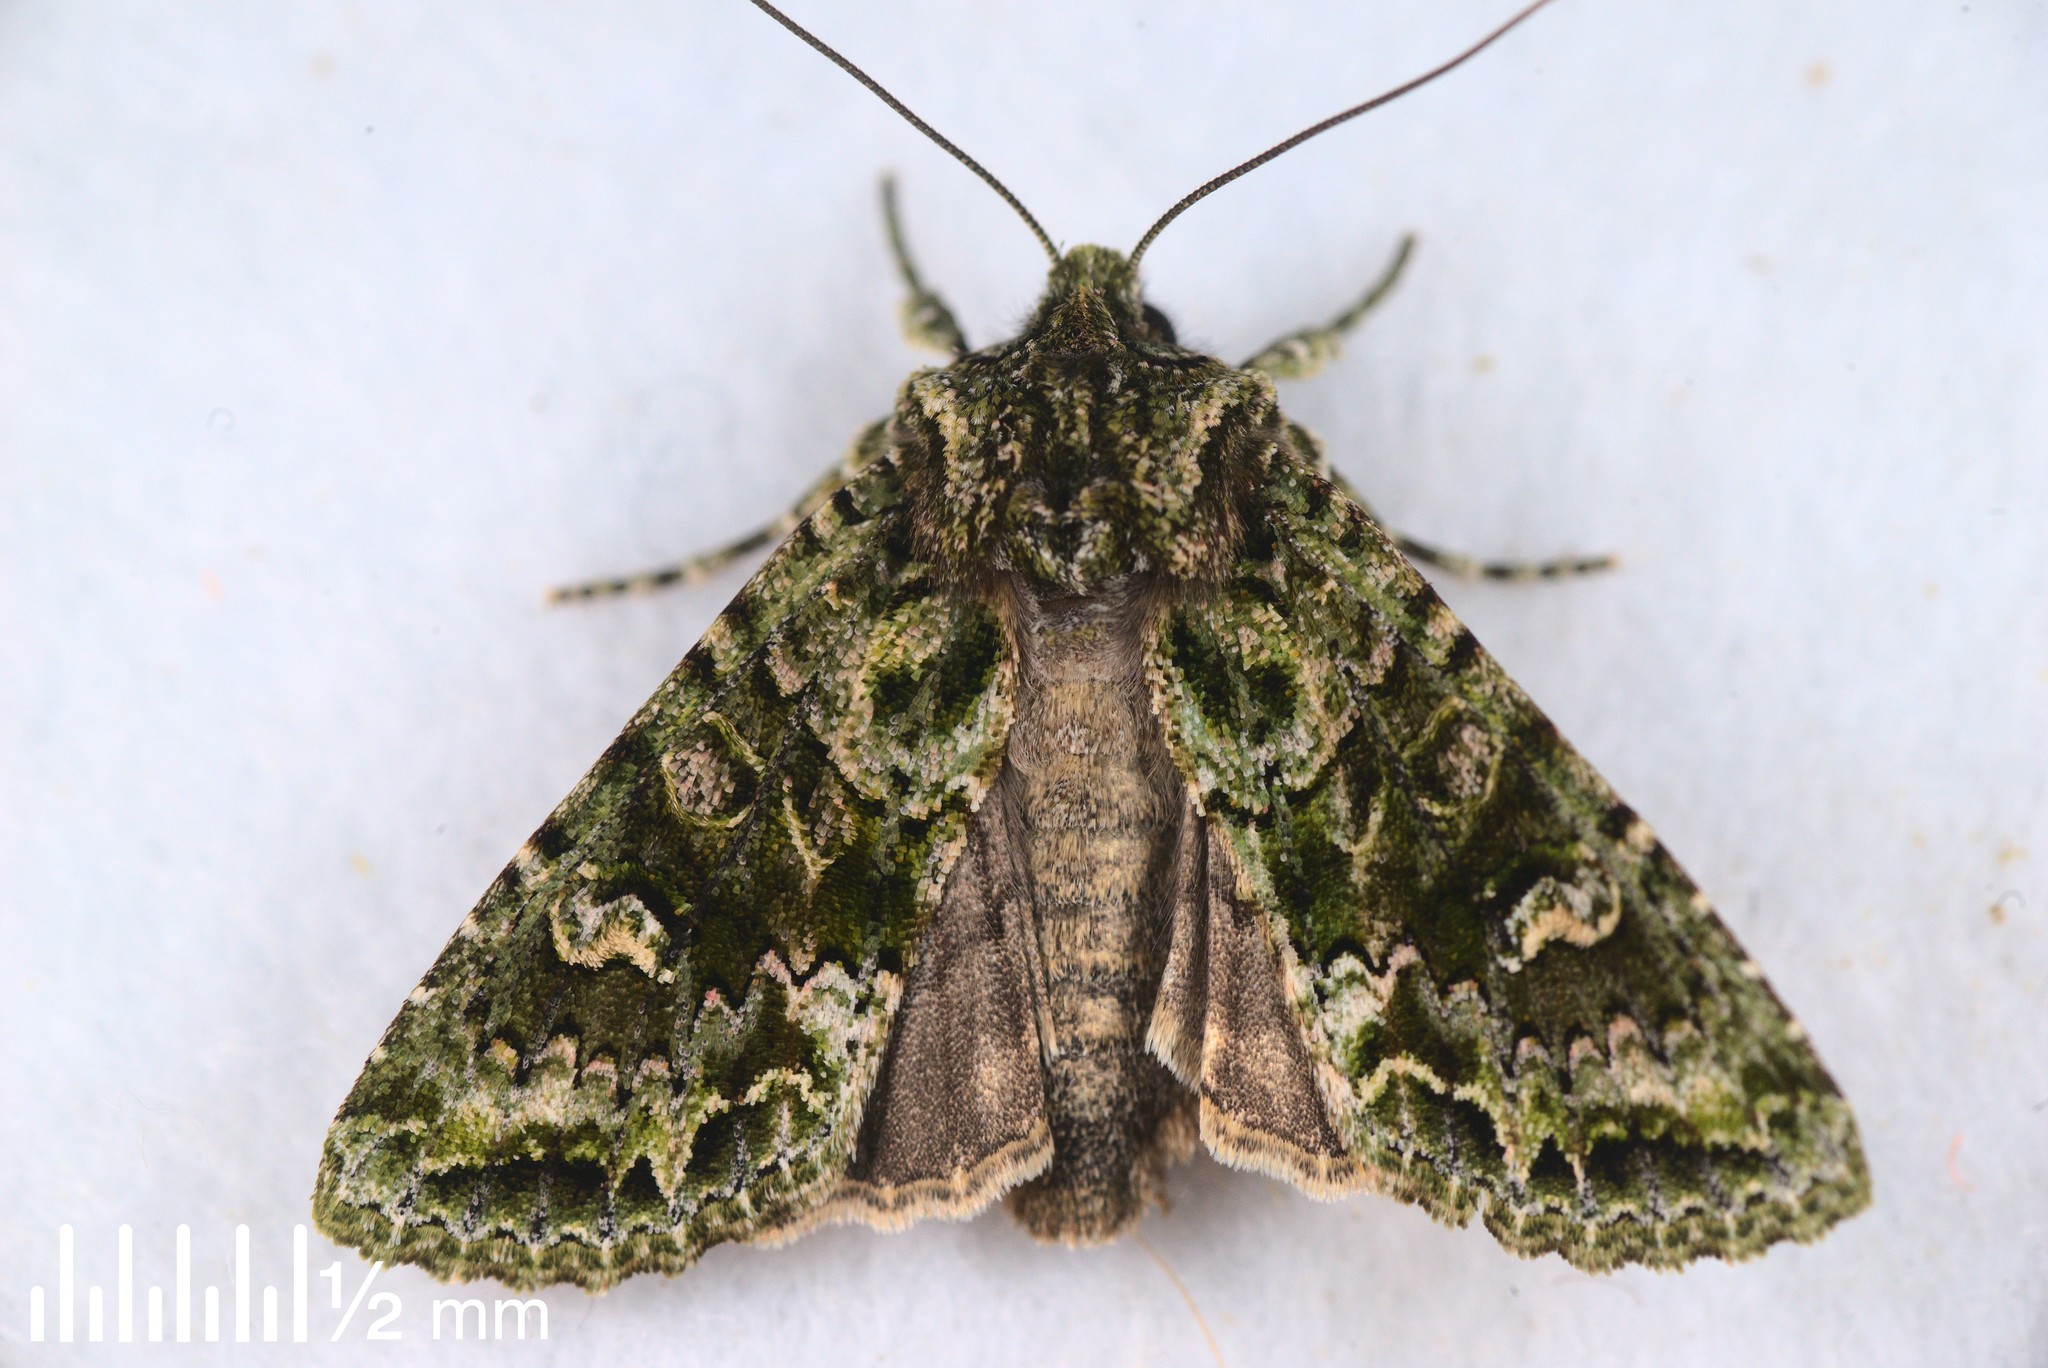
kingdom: Animalia
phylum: Arthropoda
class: Insecta
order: Lepidoptera
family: Noctuidae
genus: Ichneutica
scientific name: Ichneutica
